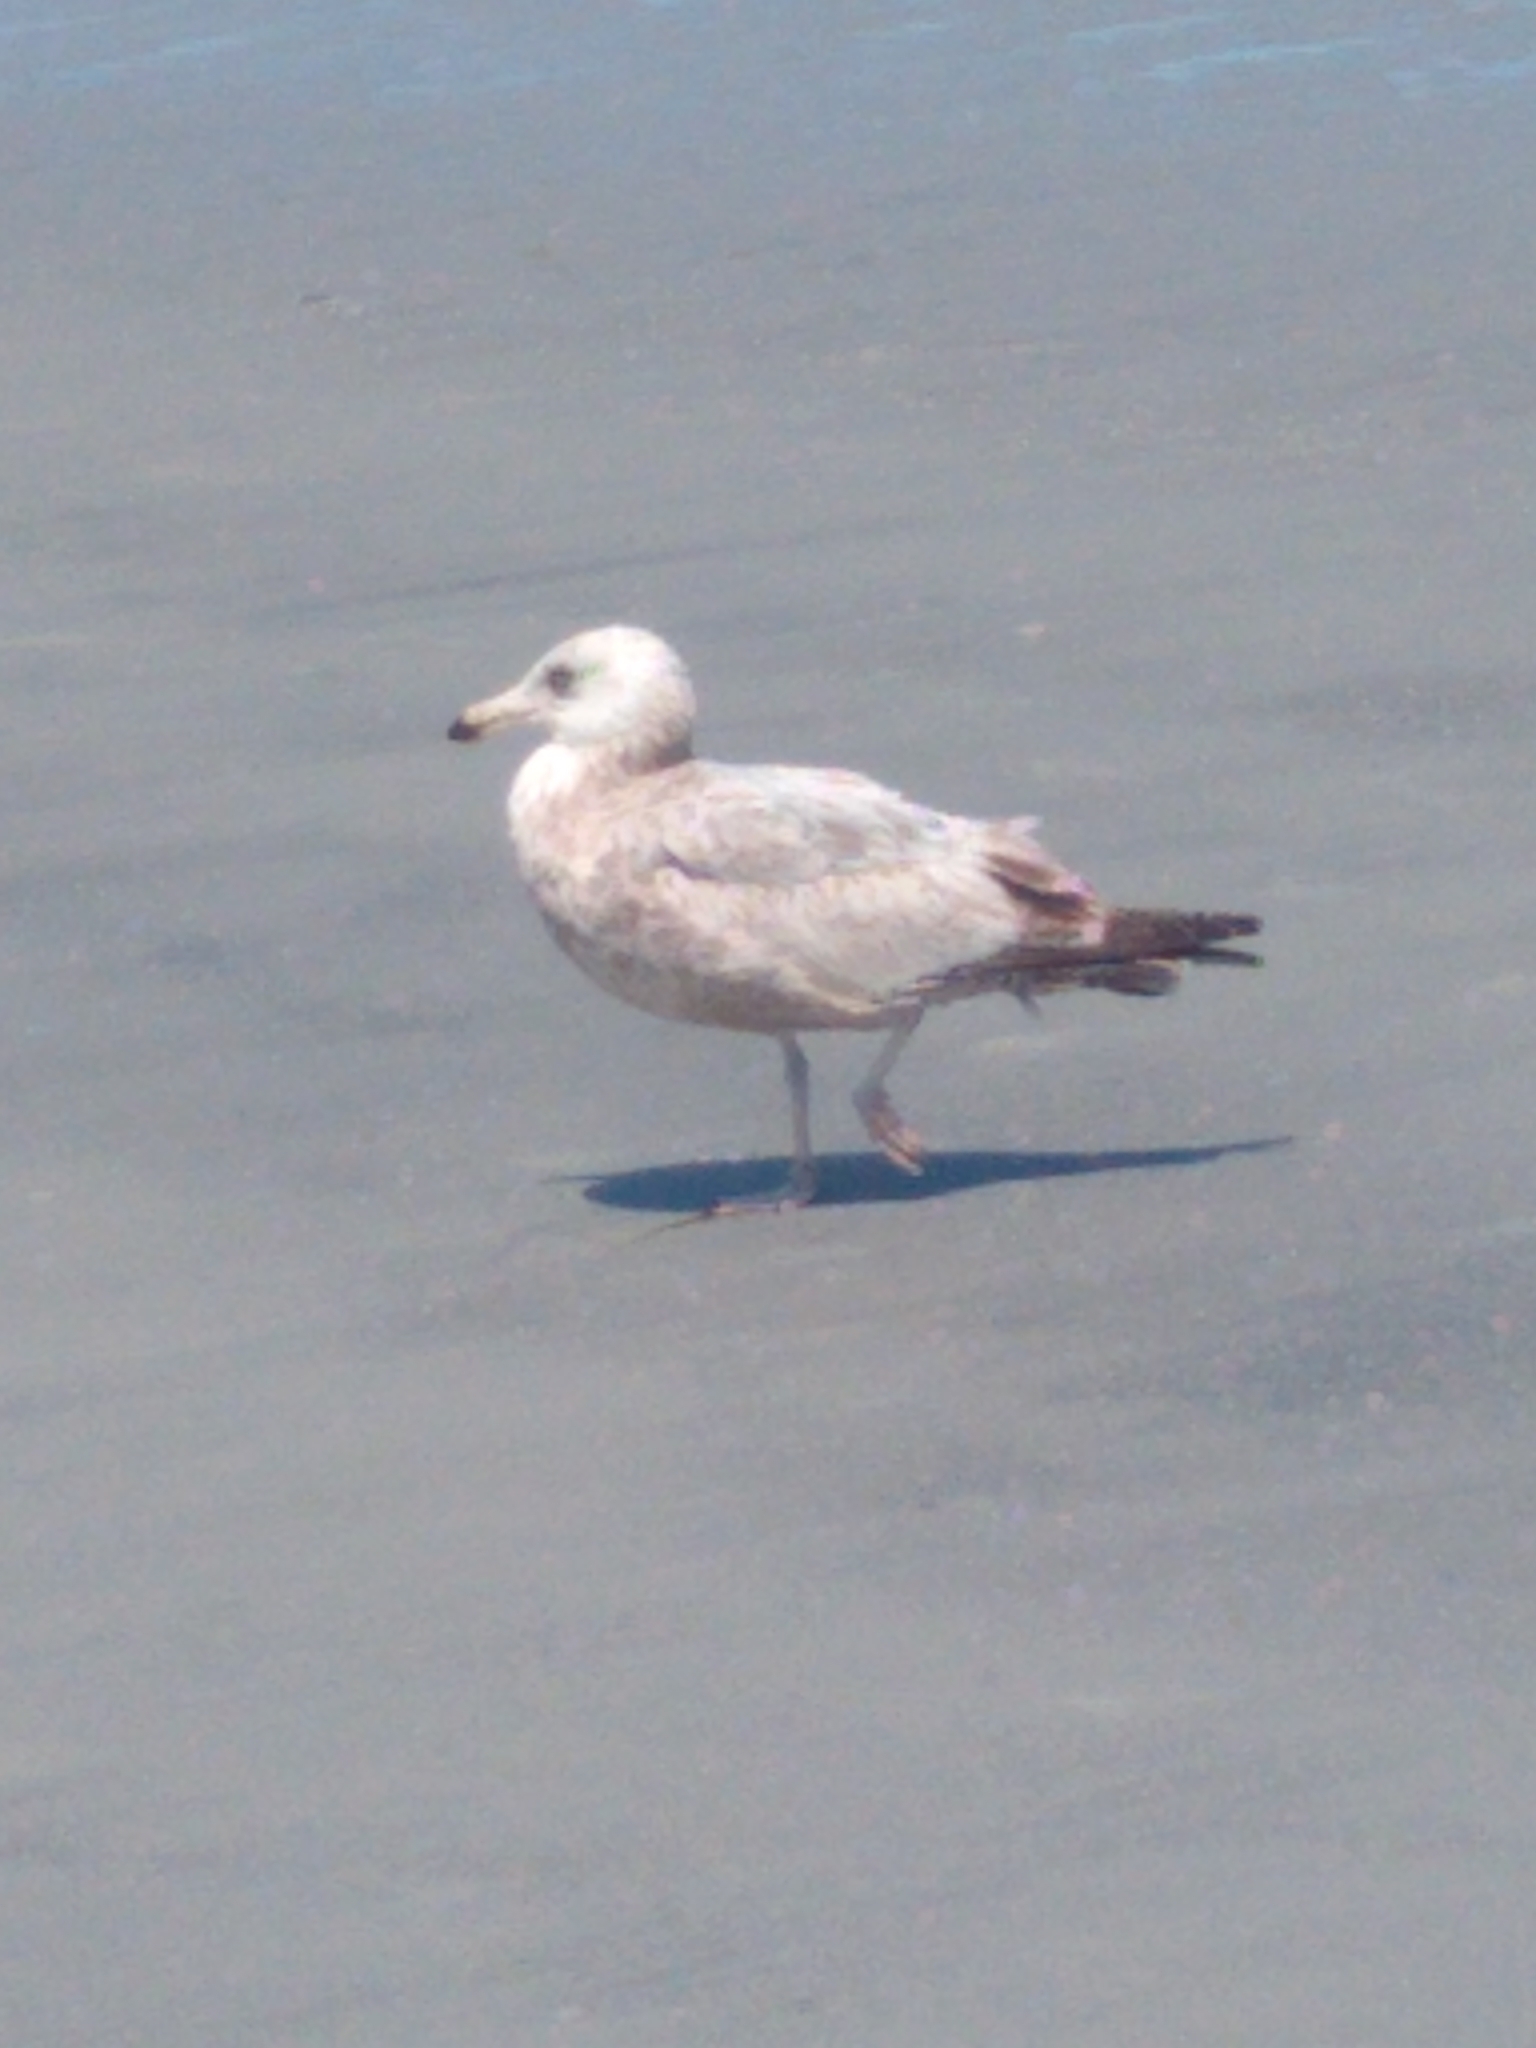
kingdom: Animalia
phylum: Chordata
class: Aves
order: Charadriiformes
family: Laridae
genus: Larus
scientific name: Larus argentatus
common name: Herring gull
